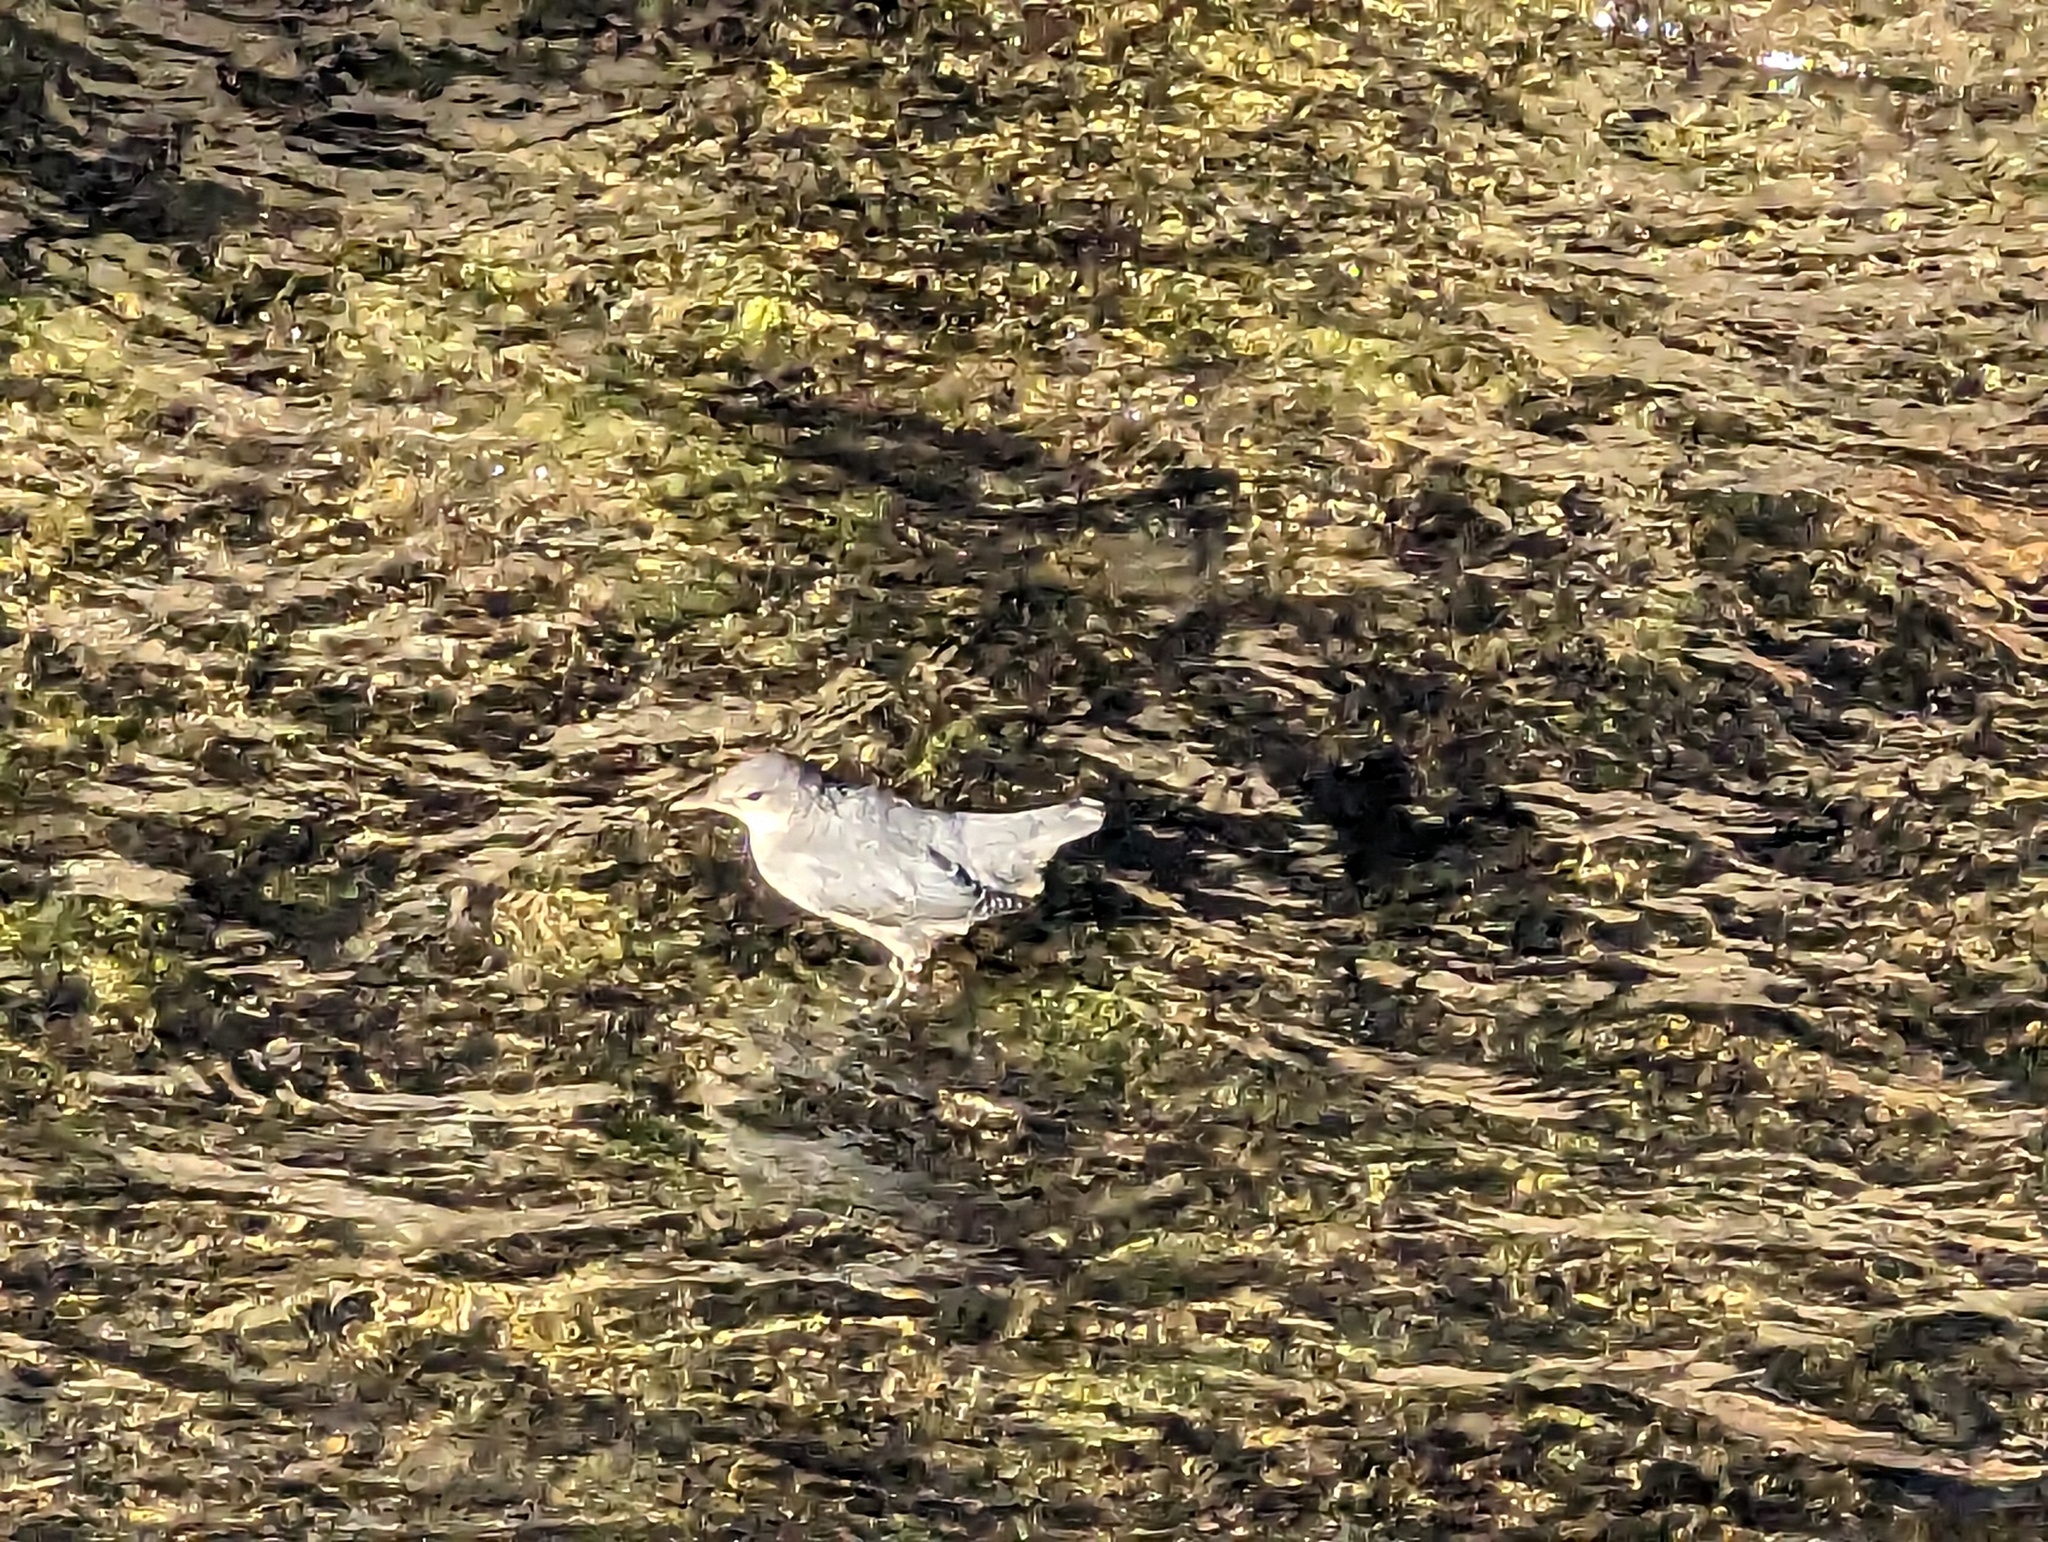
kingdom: Animalia
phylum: Chordata
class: Aves
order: Passeriformes
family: Cinclidae
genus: Cinclus
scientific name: Cinclus mexicanus
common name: American dipper
